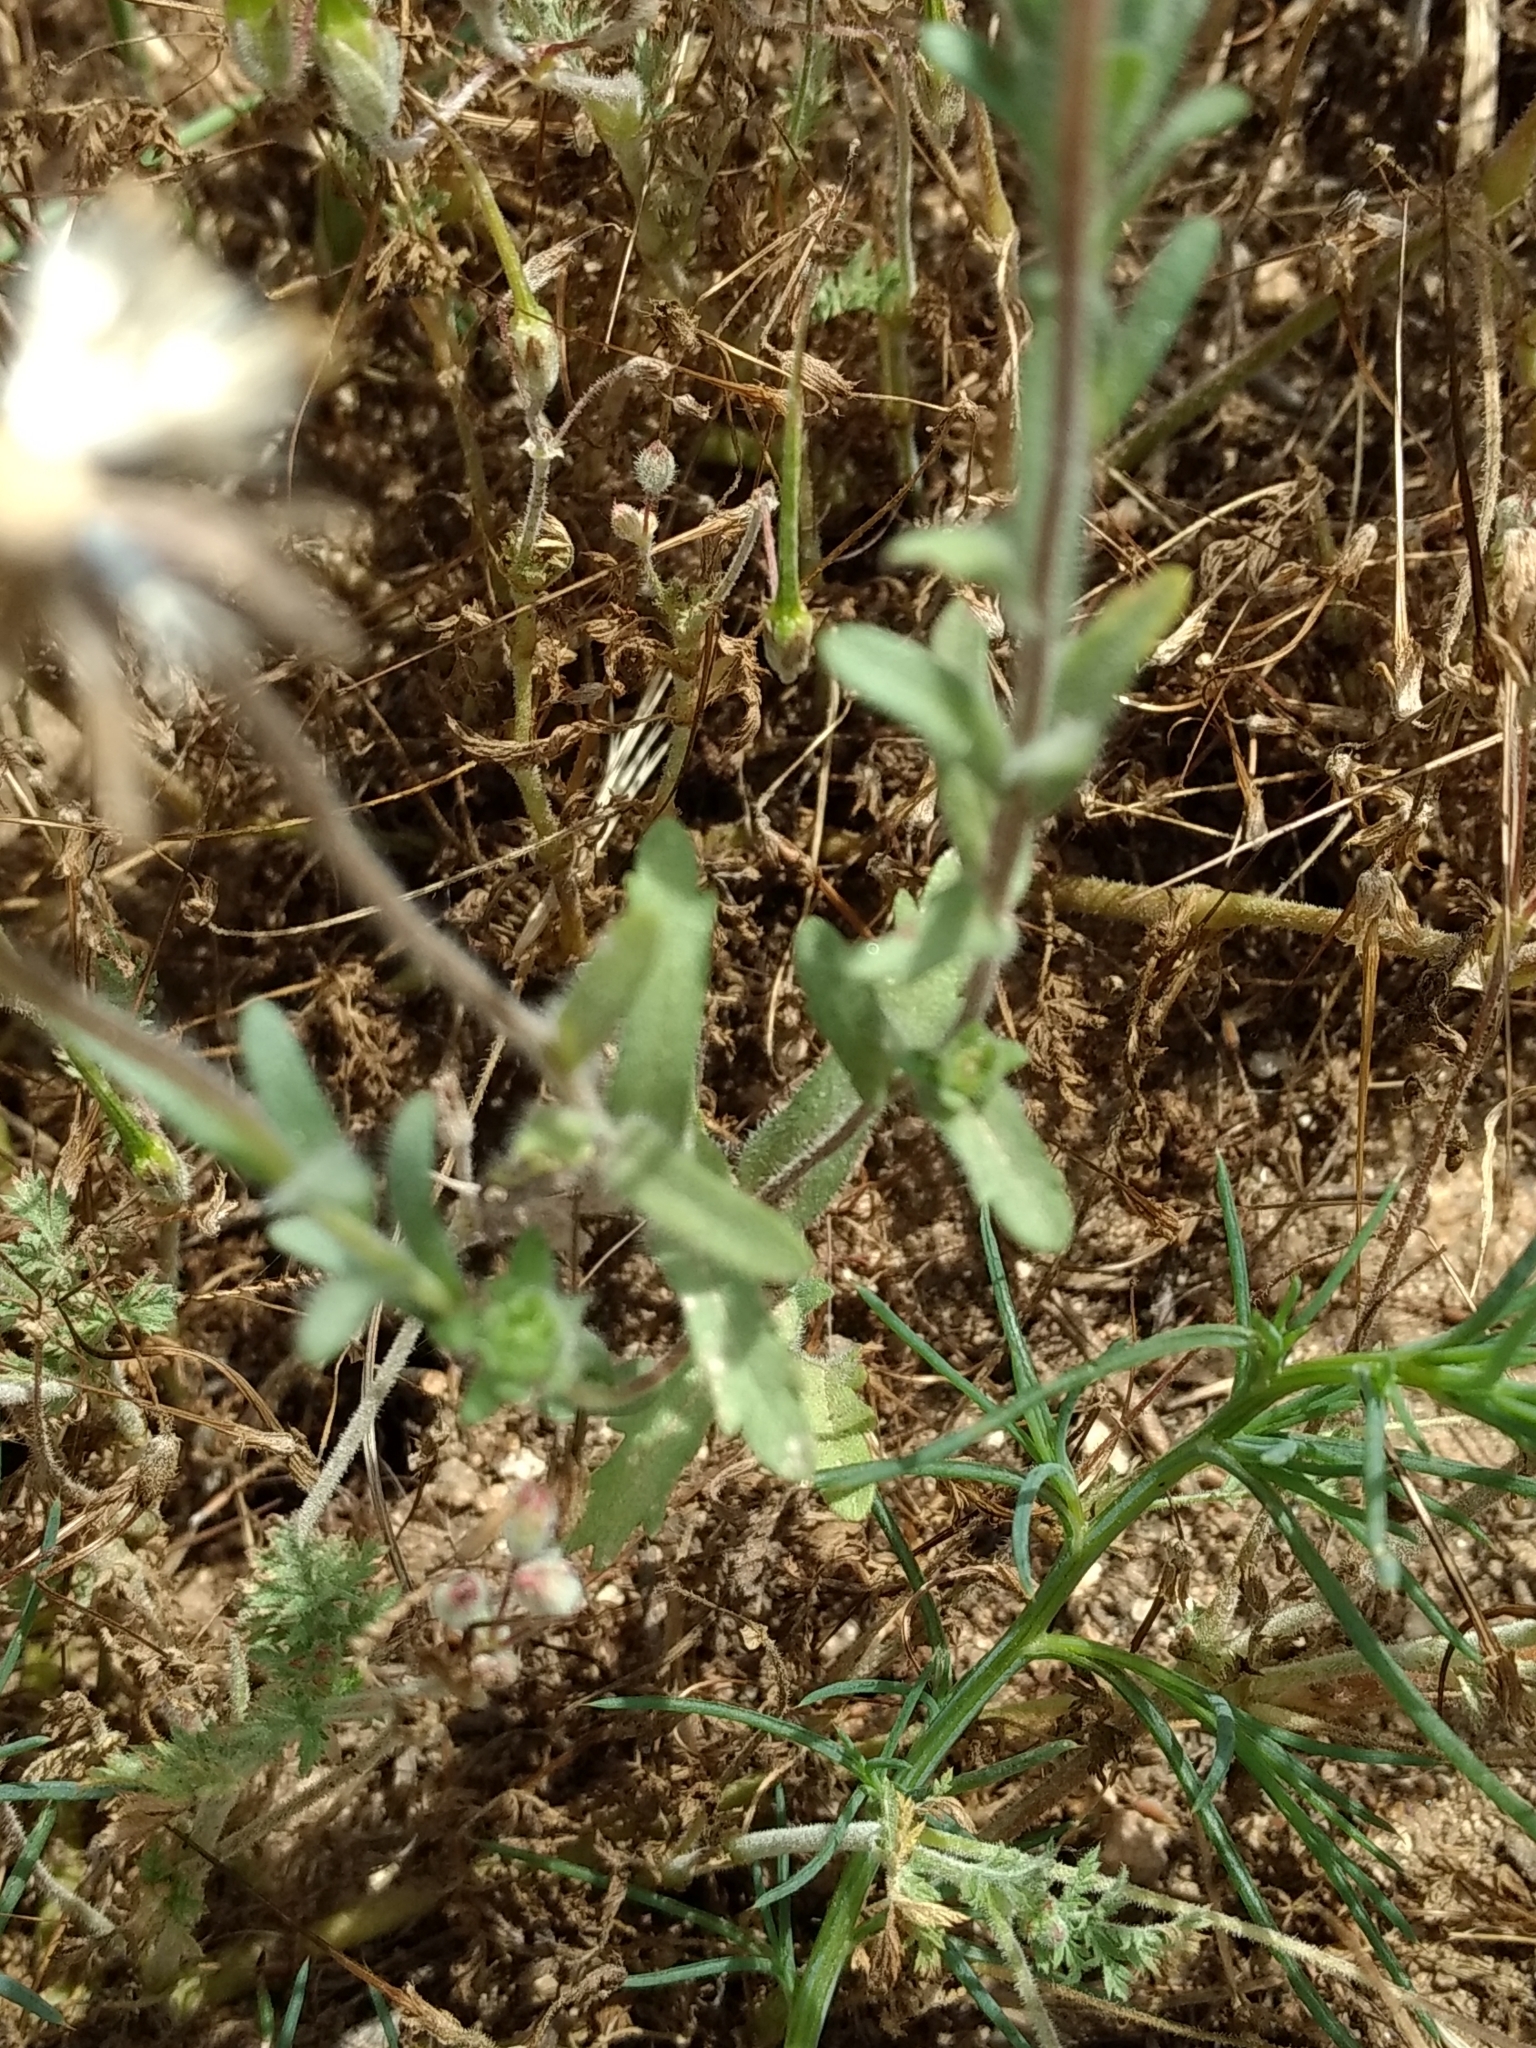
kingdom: Plantae
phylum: Tracheophyta
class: Magnoliopsida
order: Asterales
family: Asteraceae
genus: Layia
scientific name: Layia platyglossa
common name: Tidy-tips
